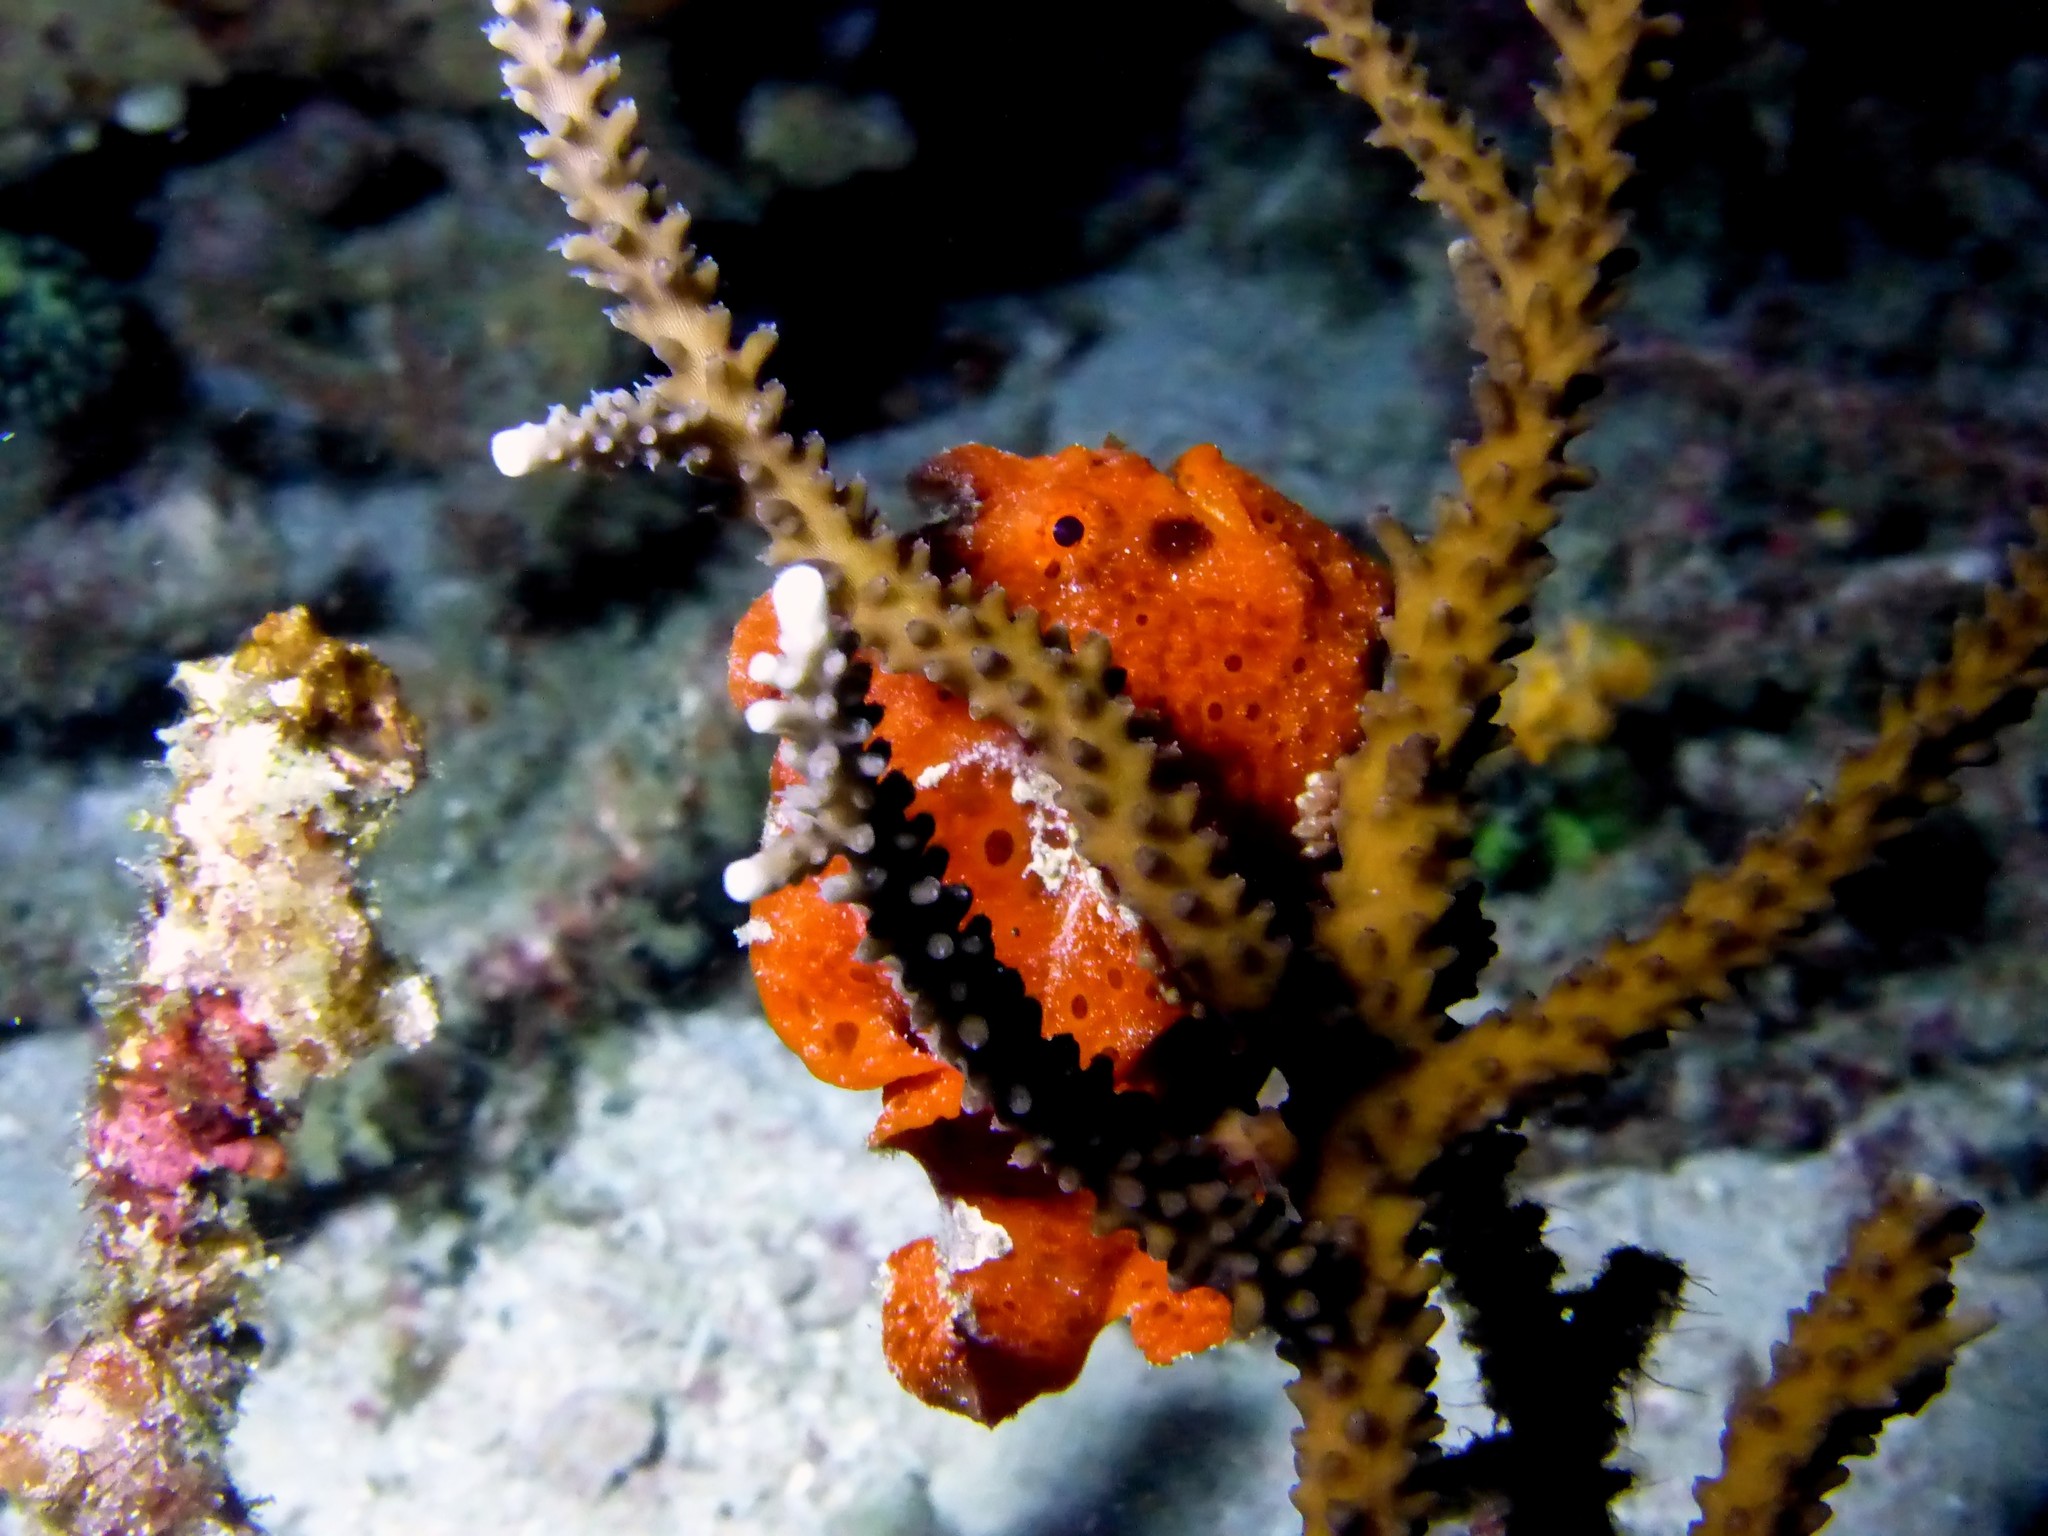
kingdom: Animalia
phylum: Chordata
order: Lophiiformes
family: Antennariidae
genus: Antennarius
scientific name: Antennarius pictus
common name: Painted frogfish
